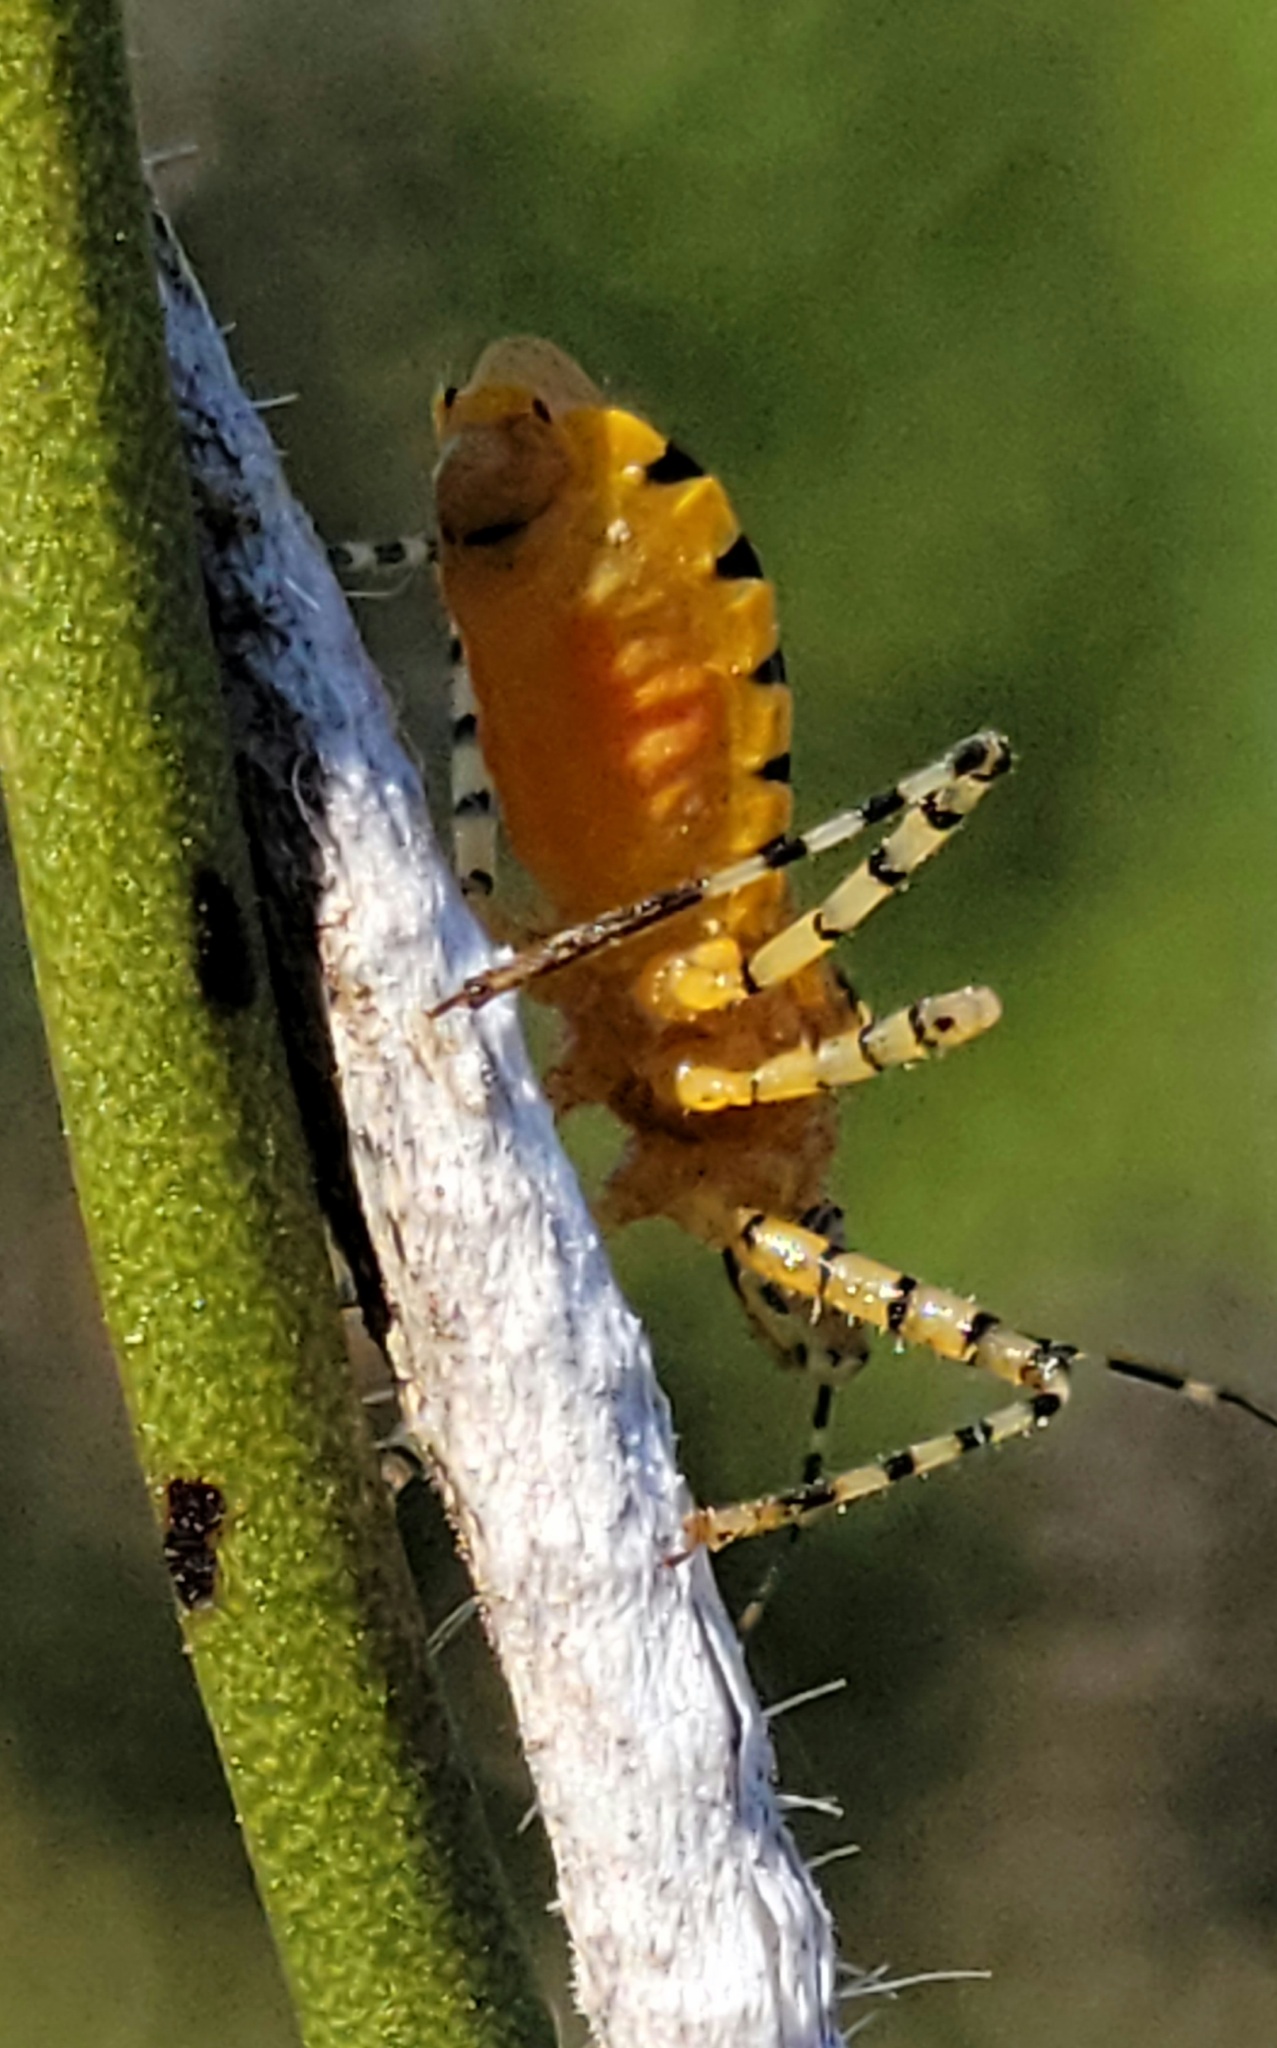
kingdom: Animalia
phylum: Arthropoda
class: Insecta
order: Hemiptera
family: Reduviidae
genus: Pselliopus
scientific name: Pselliopus barberi
